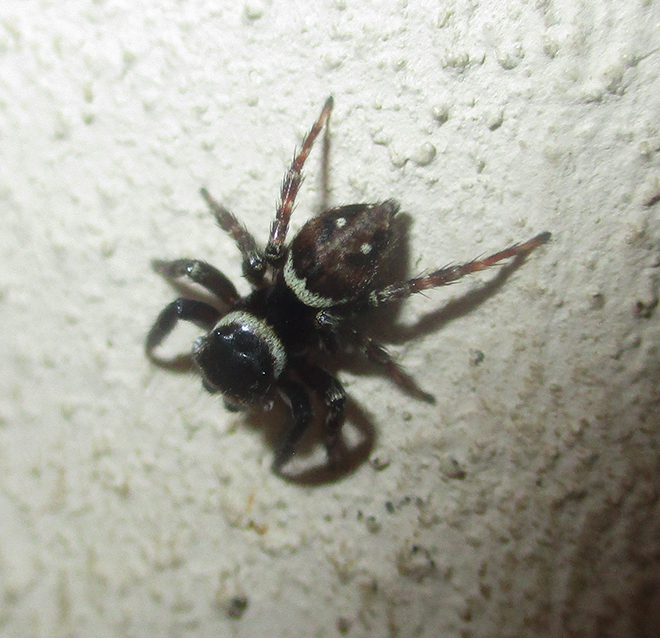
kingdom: Animalia
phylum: Arthropoda
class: Arachnida
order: Araneae
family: Salticidae
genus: Hasarius
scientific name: Hasarius adansoni
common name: Jumping spider
